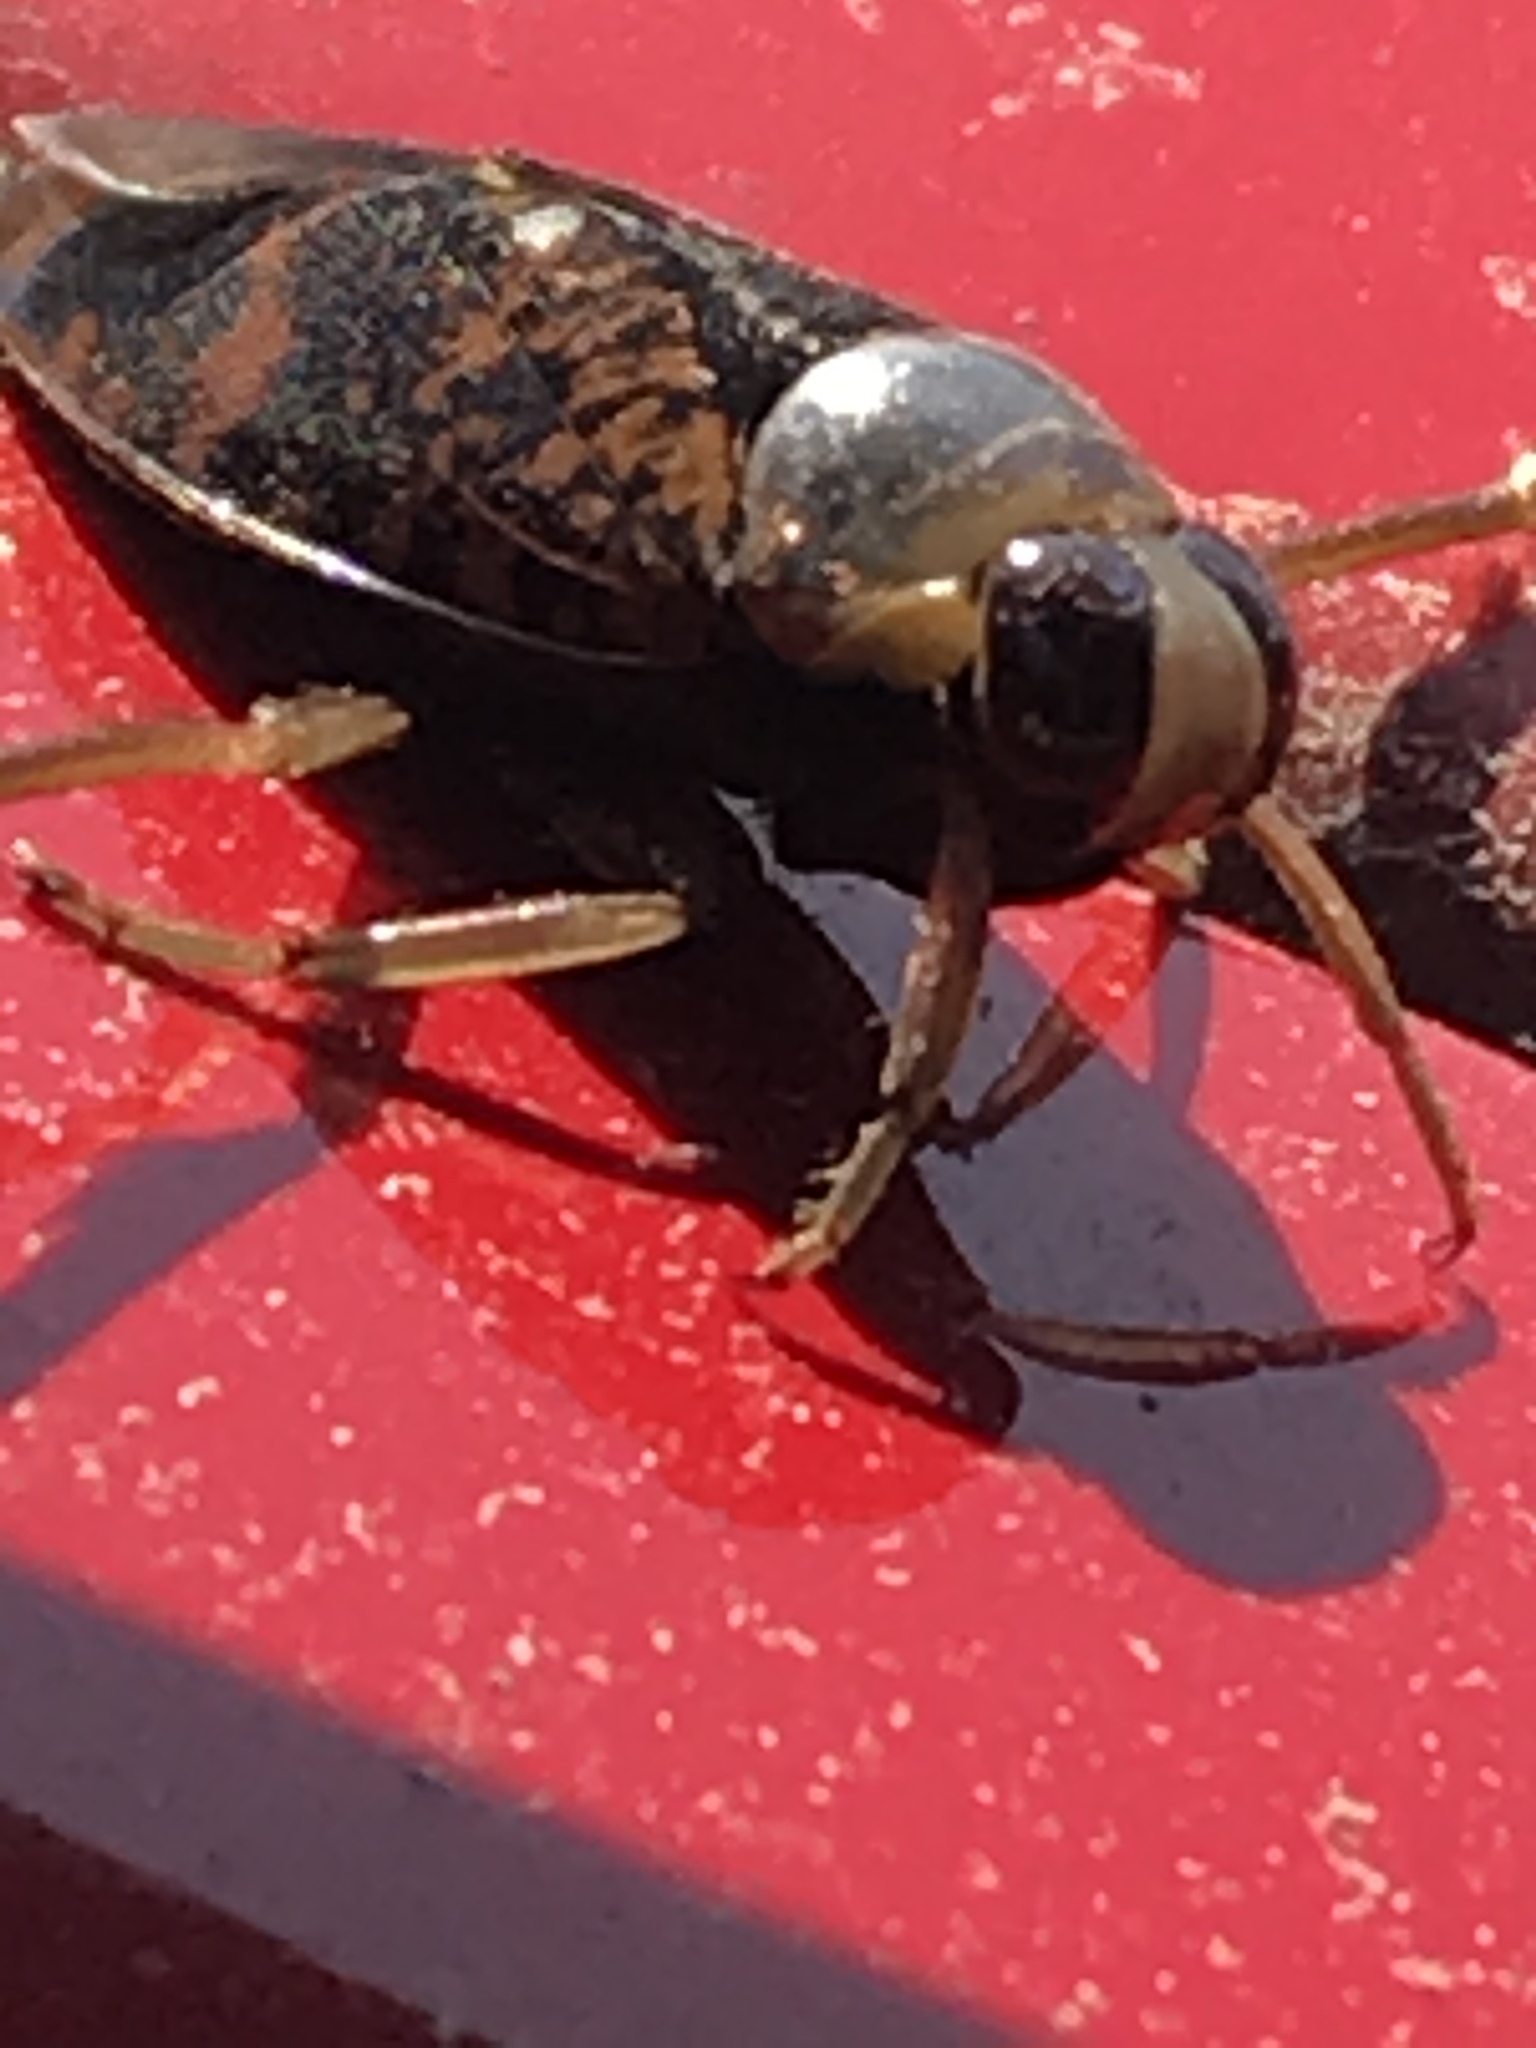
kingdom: Animalia
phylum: Arthropoda
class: Insecta
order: Hemiptera
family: Notonectidae
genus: Notonecta
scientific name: Notonecta irrorata
